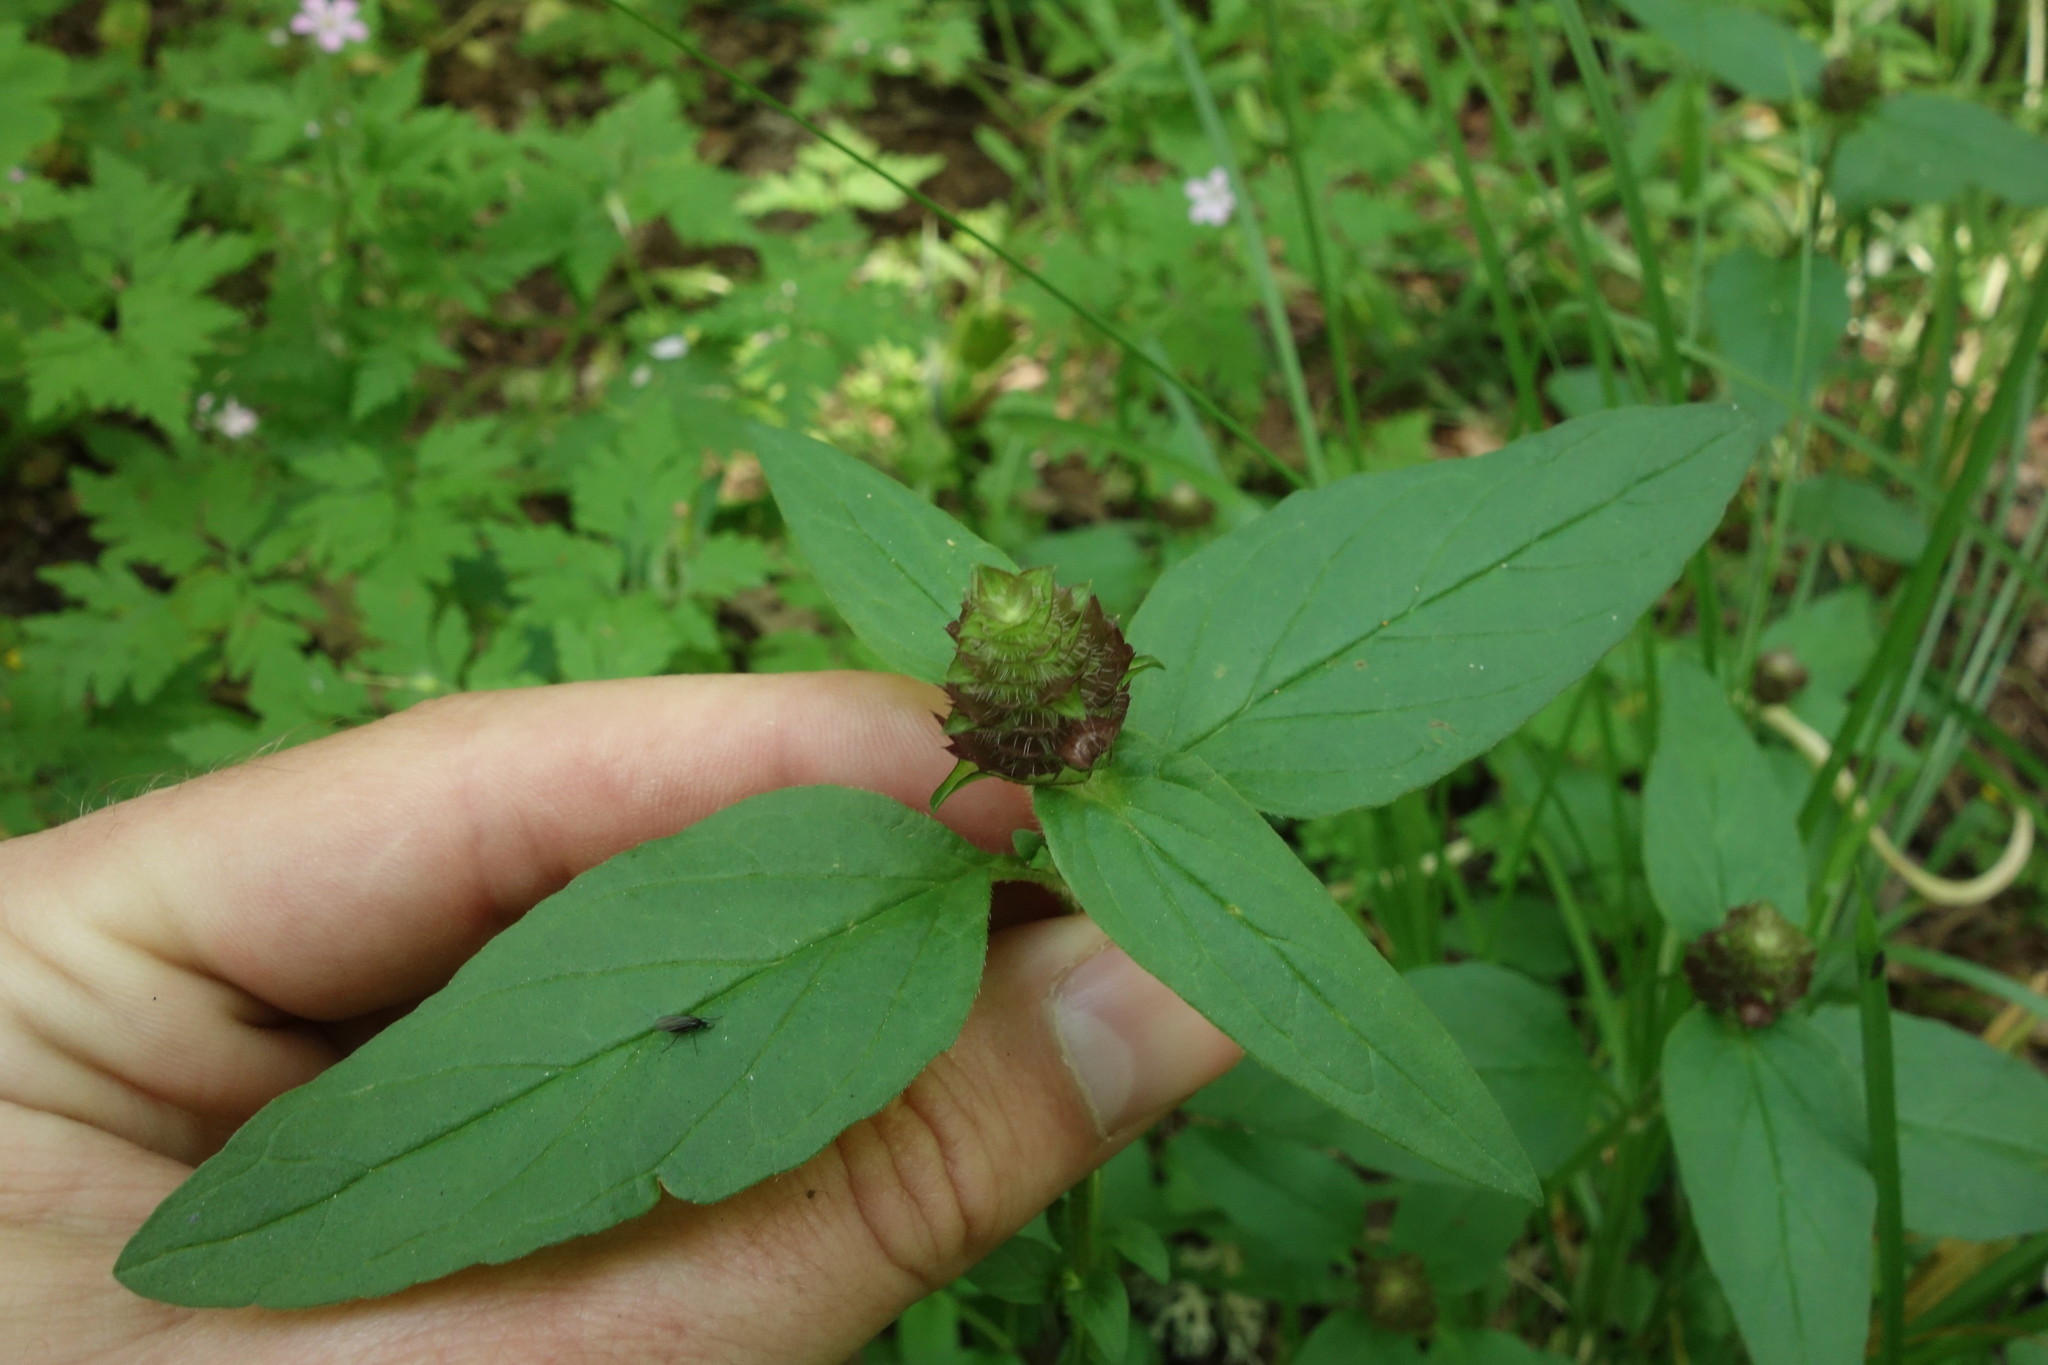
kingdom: Plantae
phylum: Tracheophyta
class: Magnoliopsida
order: Lamiales
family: Lamiaceae
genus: Prunella
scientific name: Prunella vulgaris
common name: Heal-all
